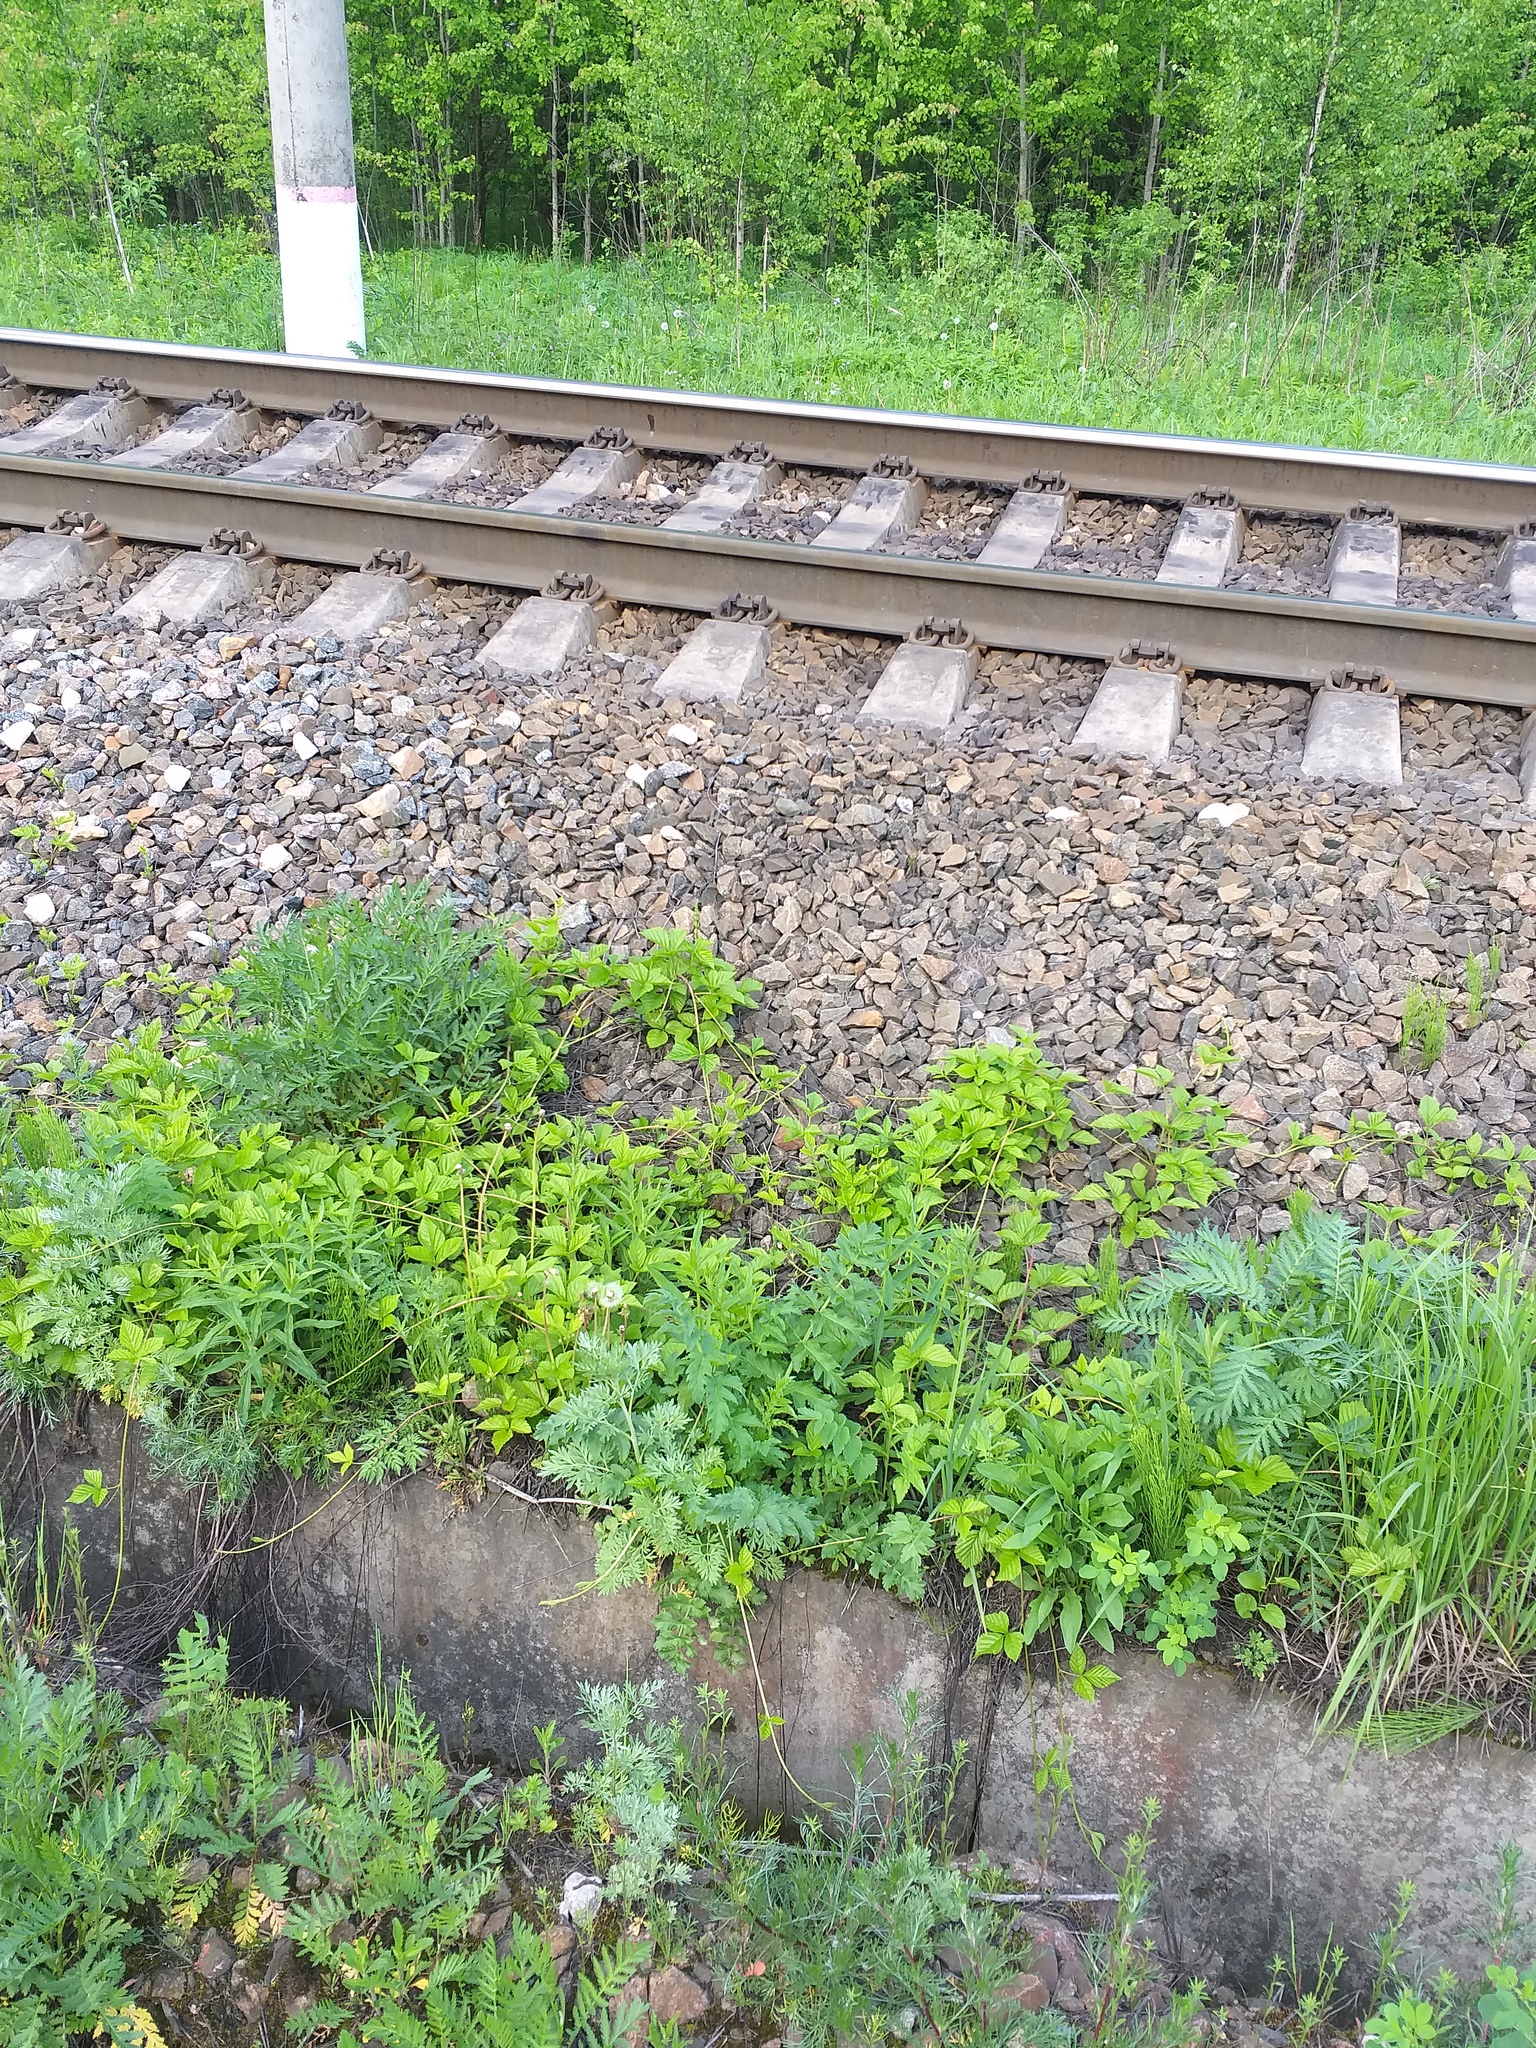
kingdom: Plantae
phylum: Tracheophyta
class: Magnoliopsida
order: Rosales
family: Rosaceae
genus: Rubus
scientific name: Rubus saxatilis
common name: Stone bramble
